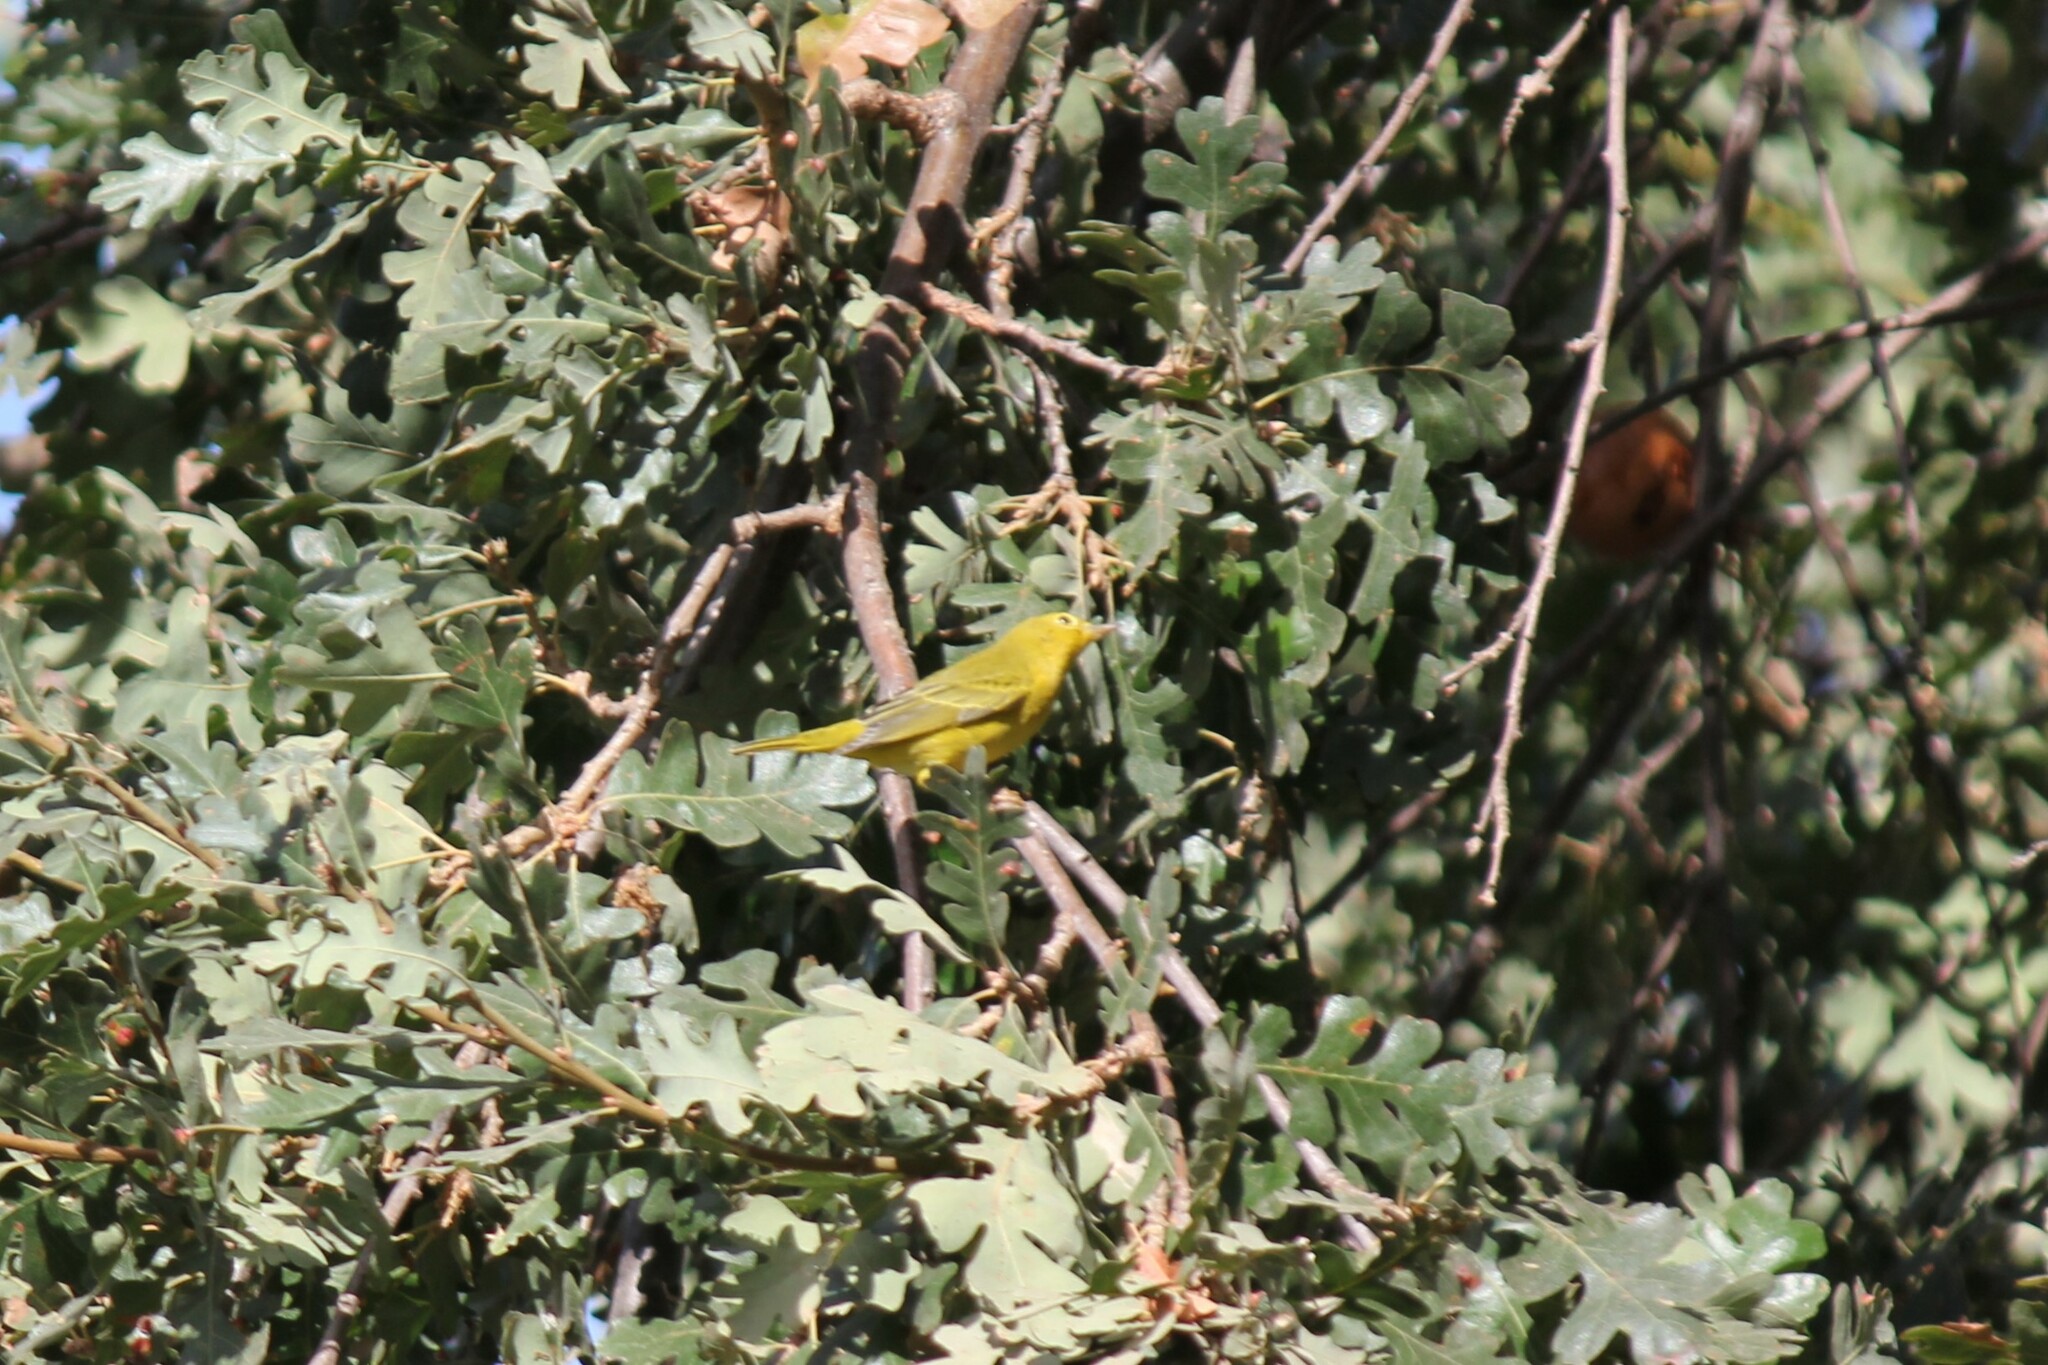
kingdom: Animalia
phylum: Chordata
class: Aves
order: Passeriformes
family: Parulidae
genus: Setophaga
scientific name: Setophaga petechia
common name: Yellow warbler
